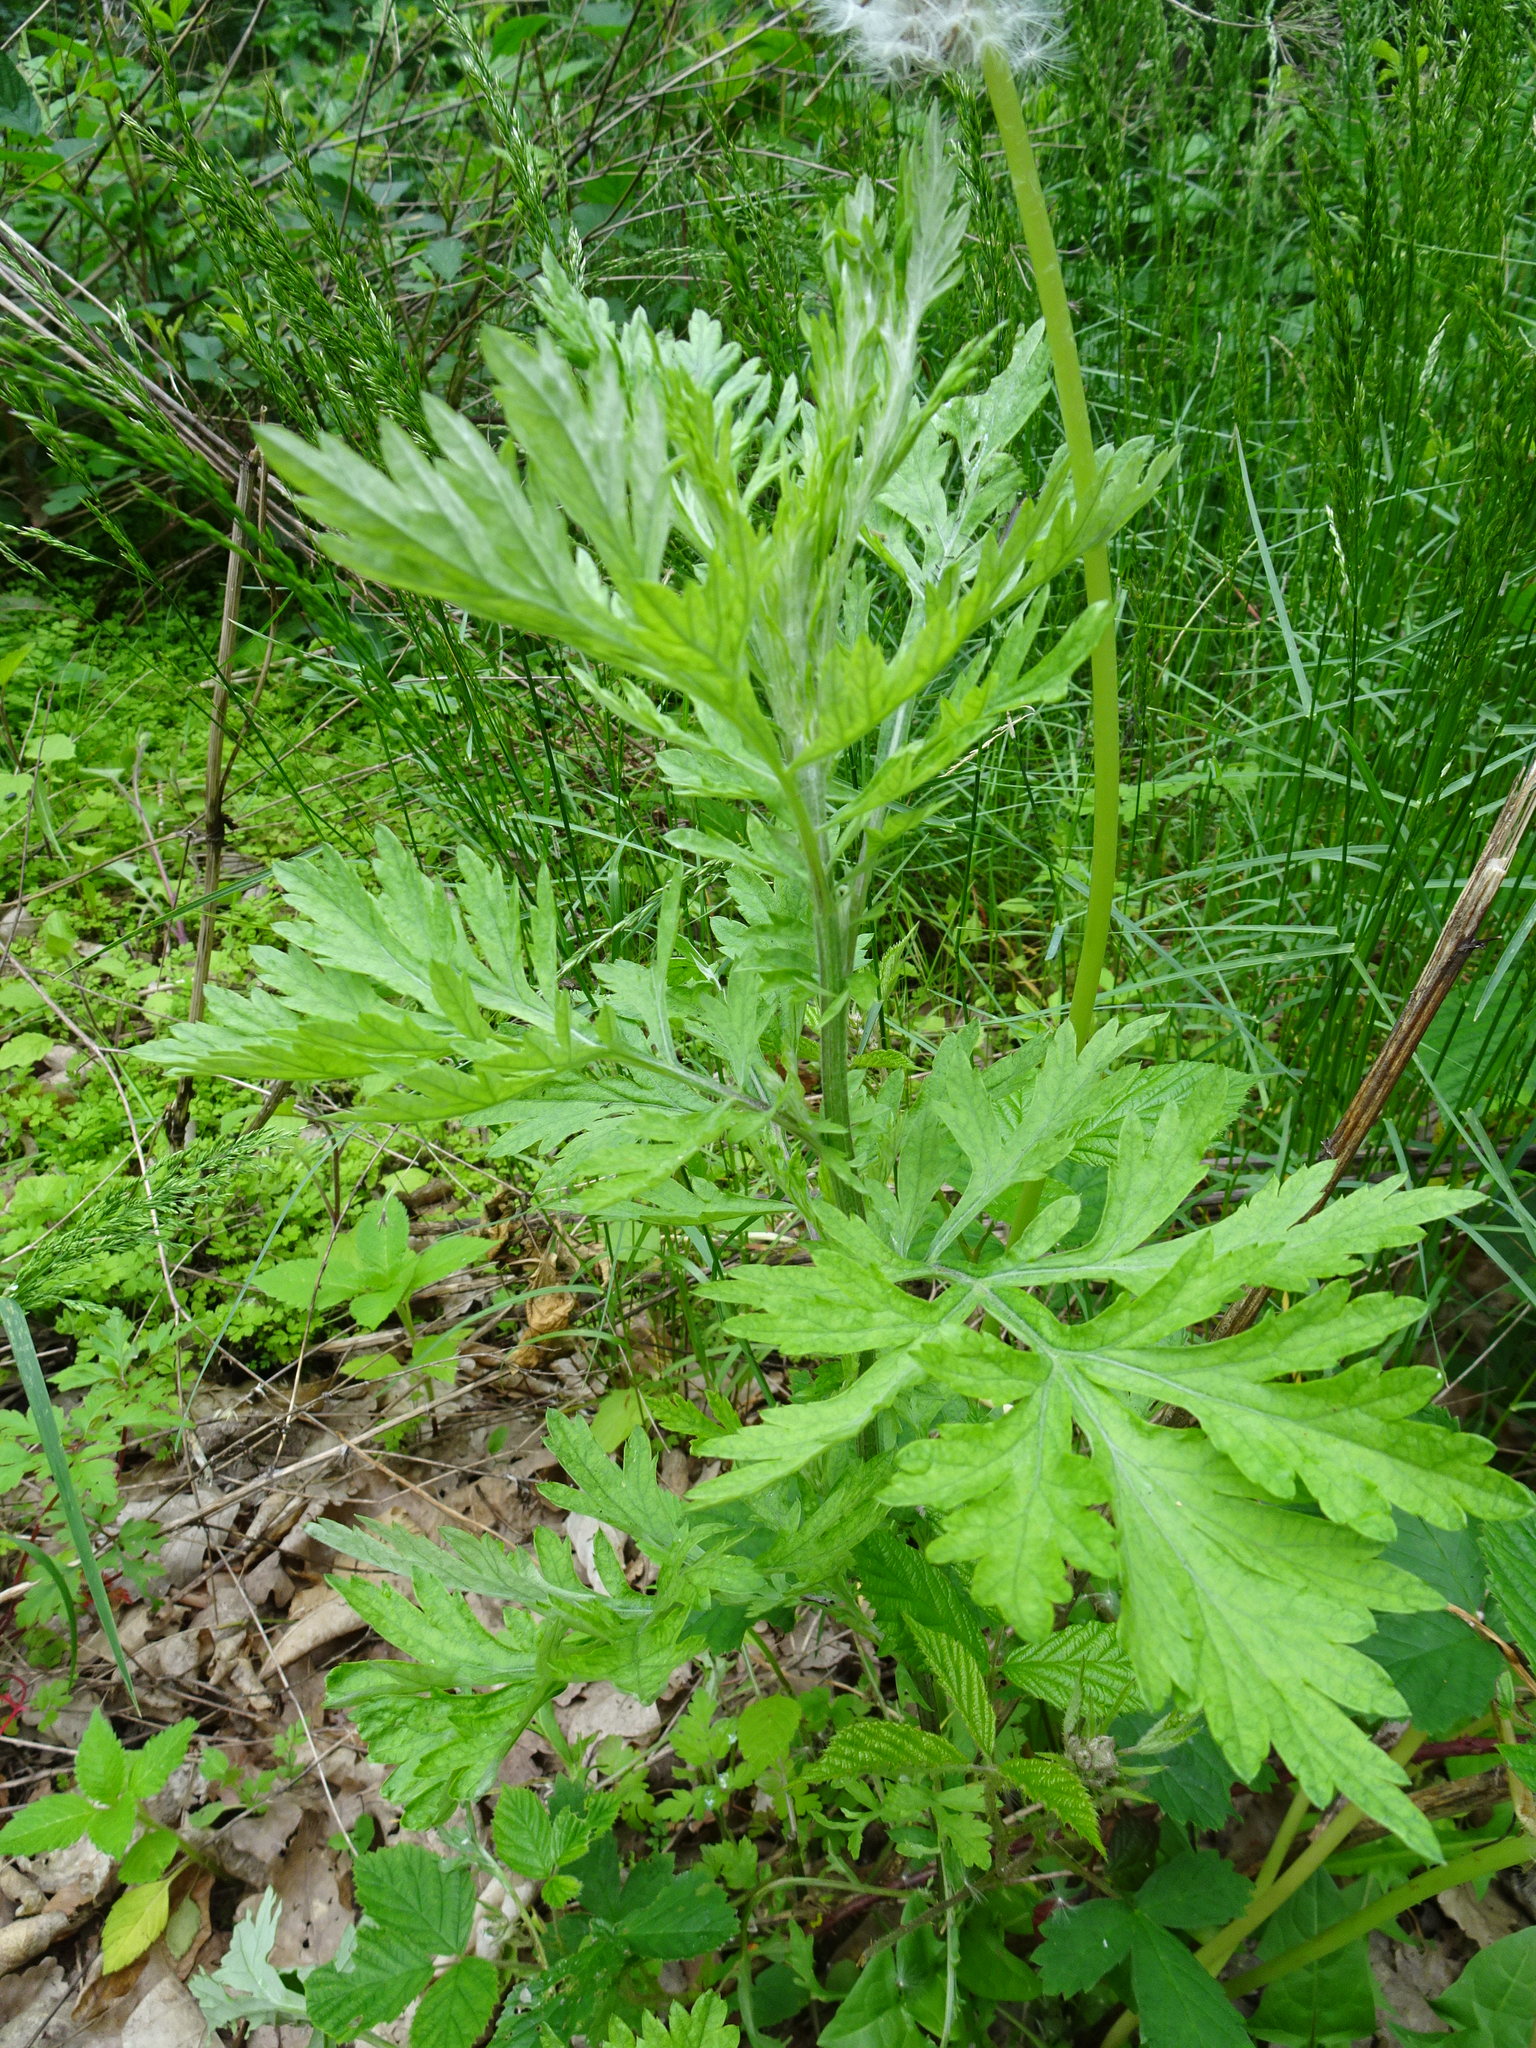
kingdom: Plantae
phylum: Tracheophyta
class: Magnoliopsida
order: Asterales
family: Asteraceae
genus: Artemisia
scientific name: Artemisia vulgaris
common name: Mugwort
